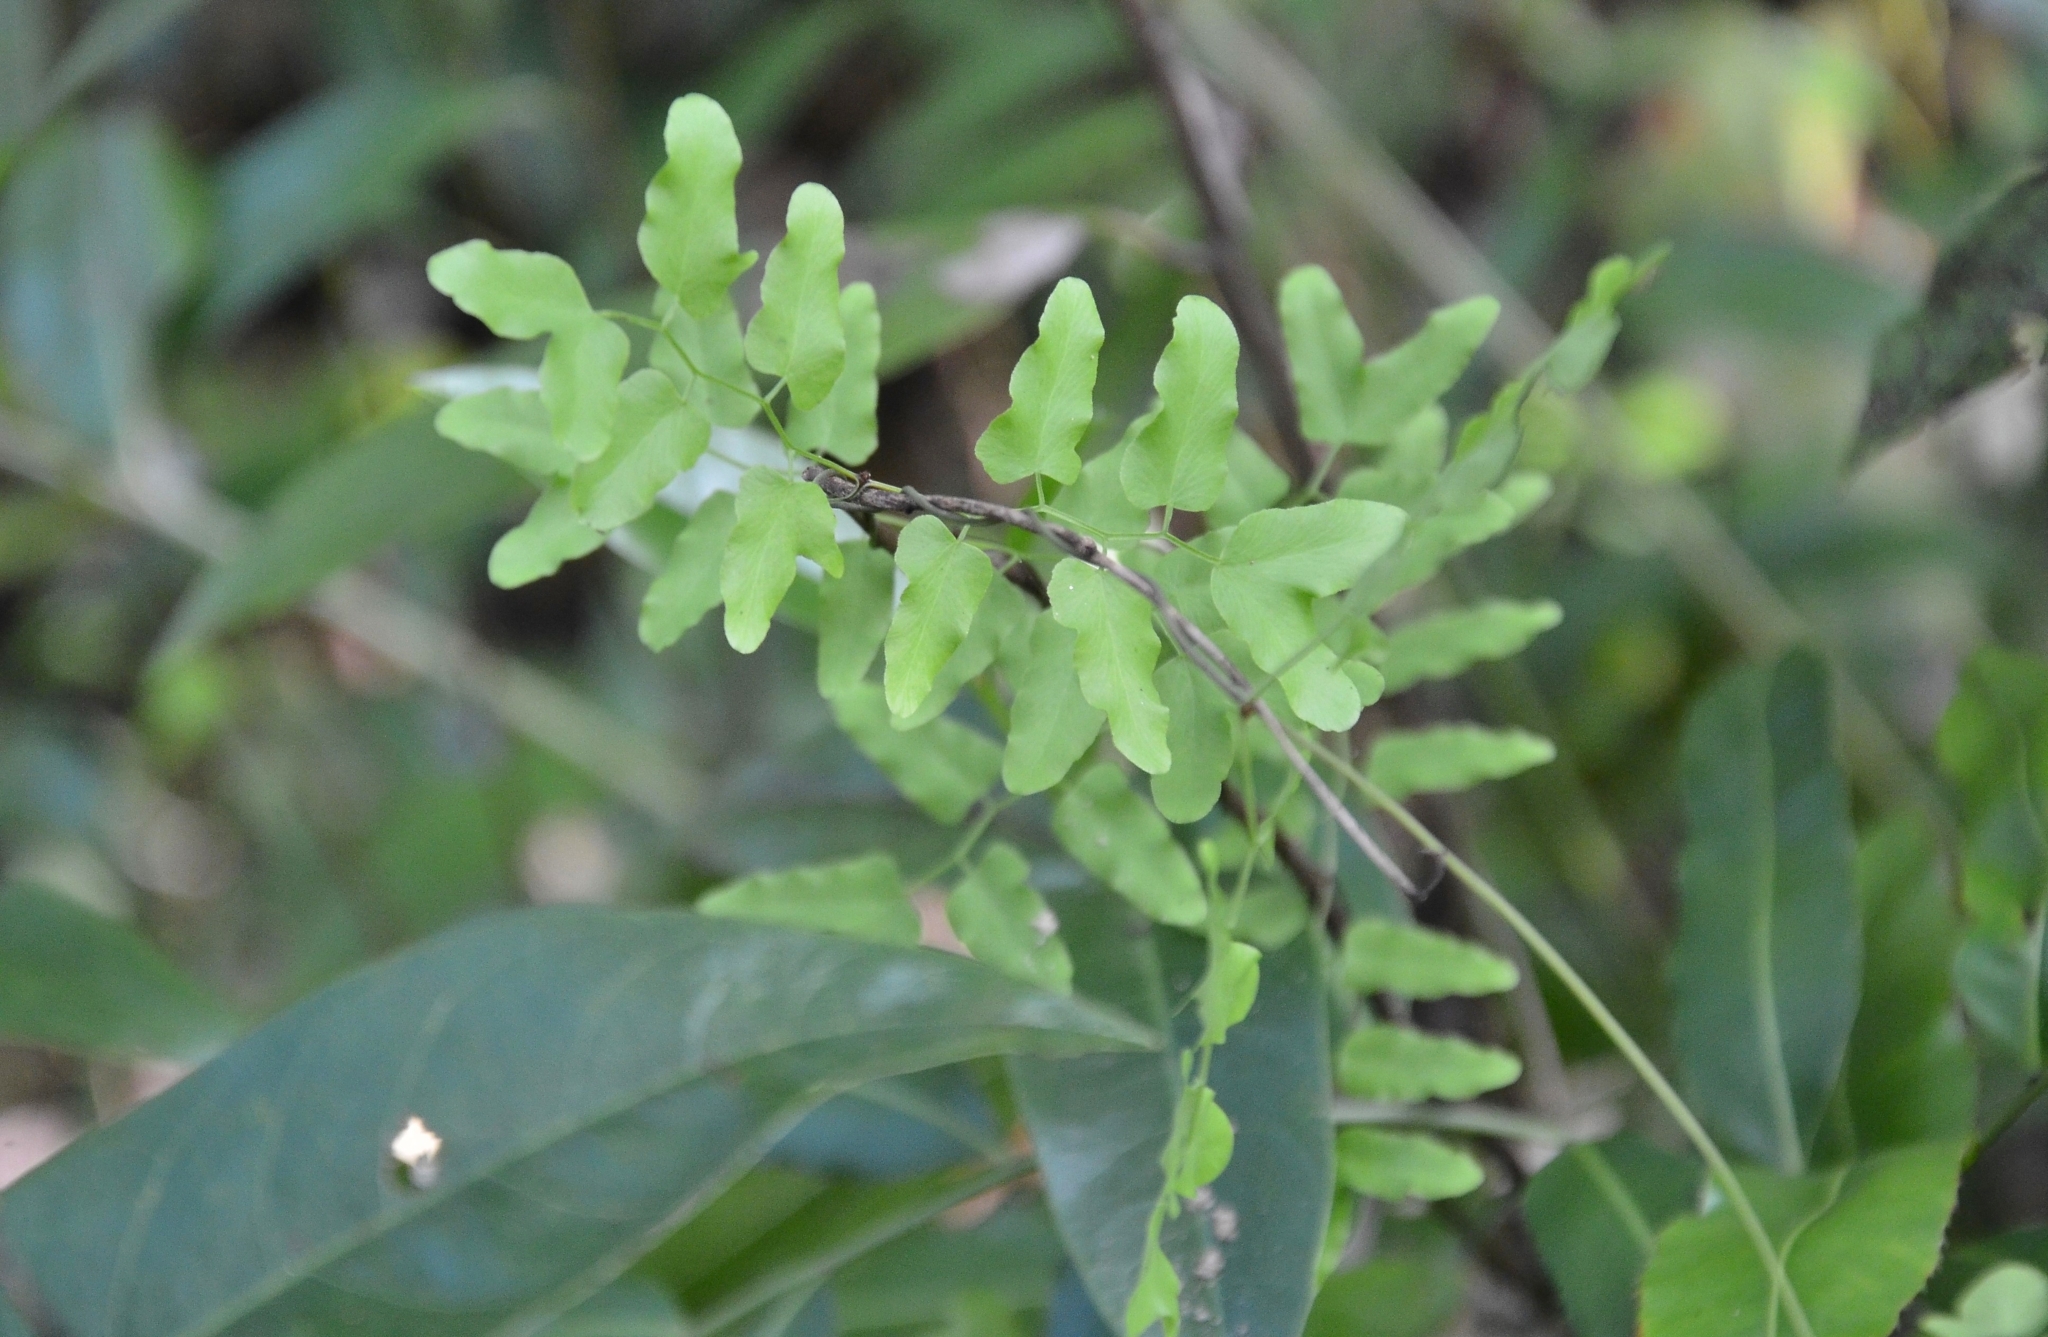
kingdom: Plantae
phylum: Tracheophyta
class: Polypodiopsida
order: Schizaeales
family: Lygodiaceae
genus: Lygodium
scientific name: Lygodium microphyllum
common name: Small-leaf climbing fern
